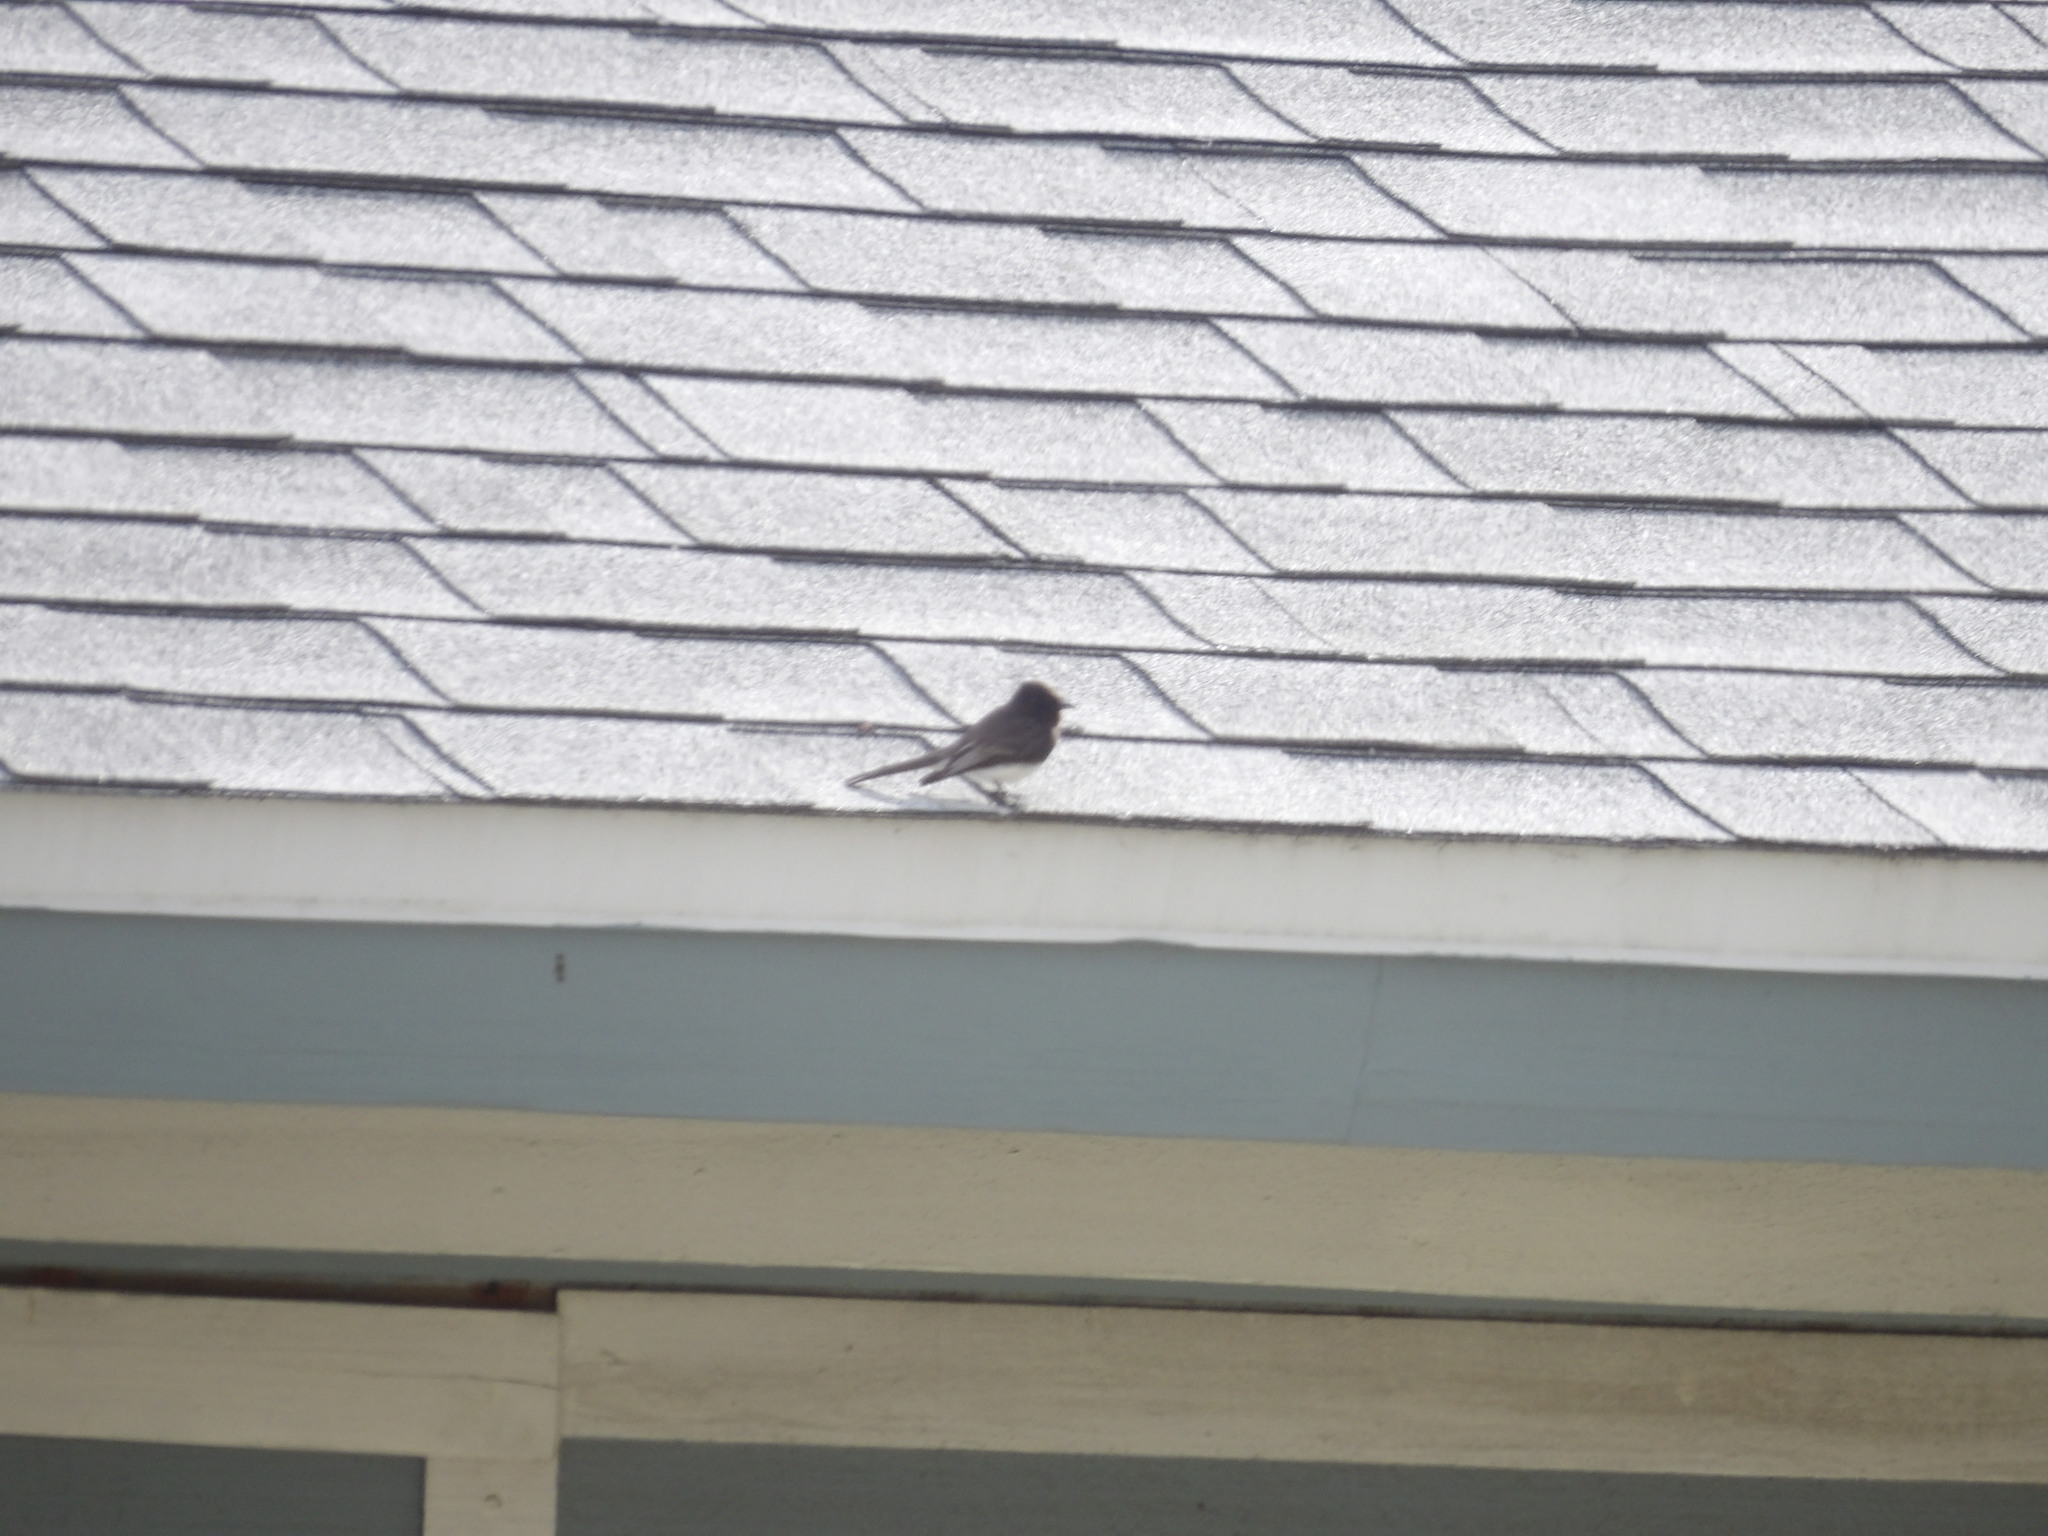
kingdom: Animalia
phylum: Chordata
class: Aves
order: Passeriformes
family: Tyrannidae
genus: Sayornis
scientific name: Sayornis nigricans
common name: Black phoebe
